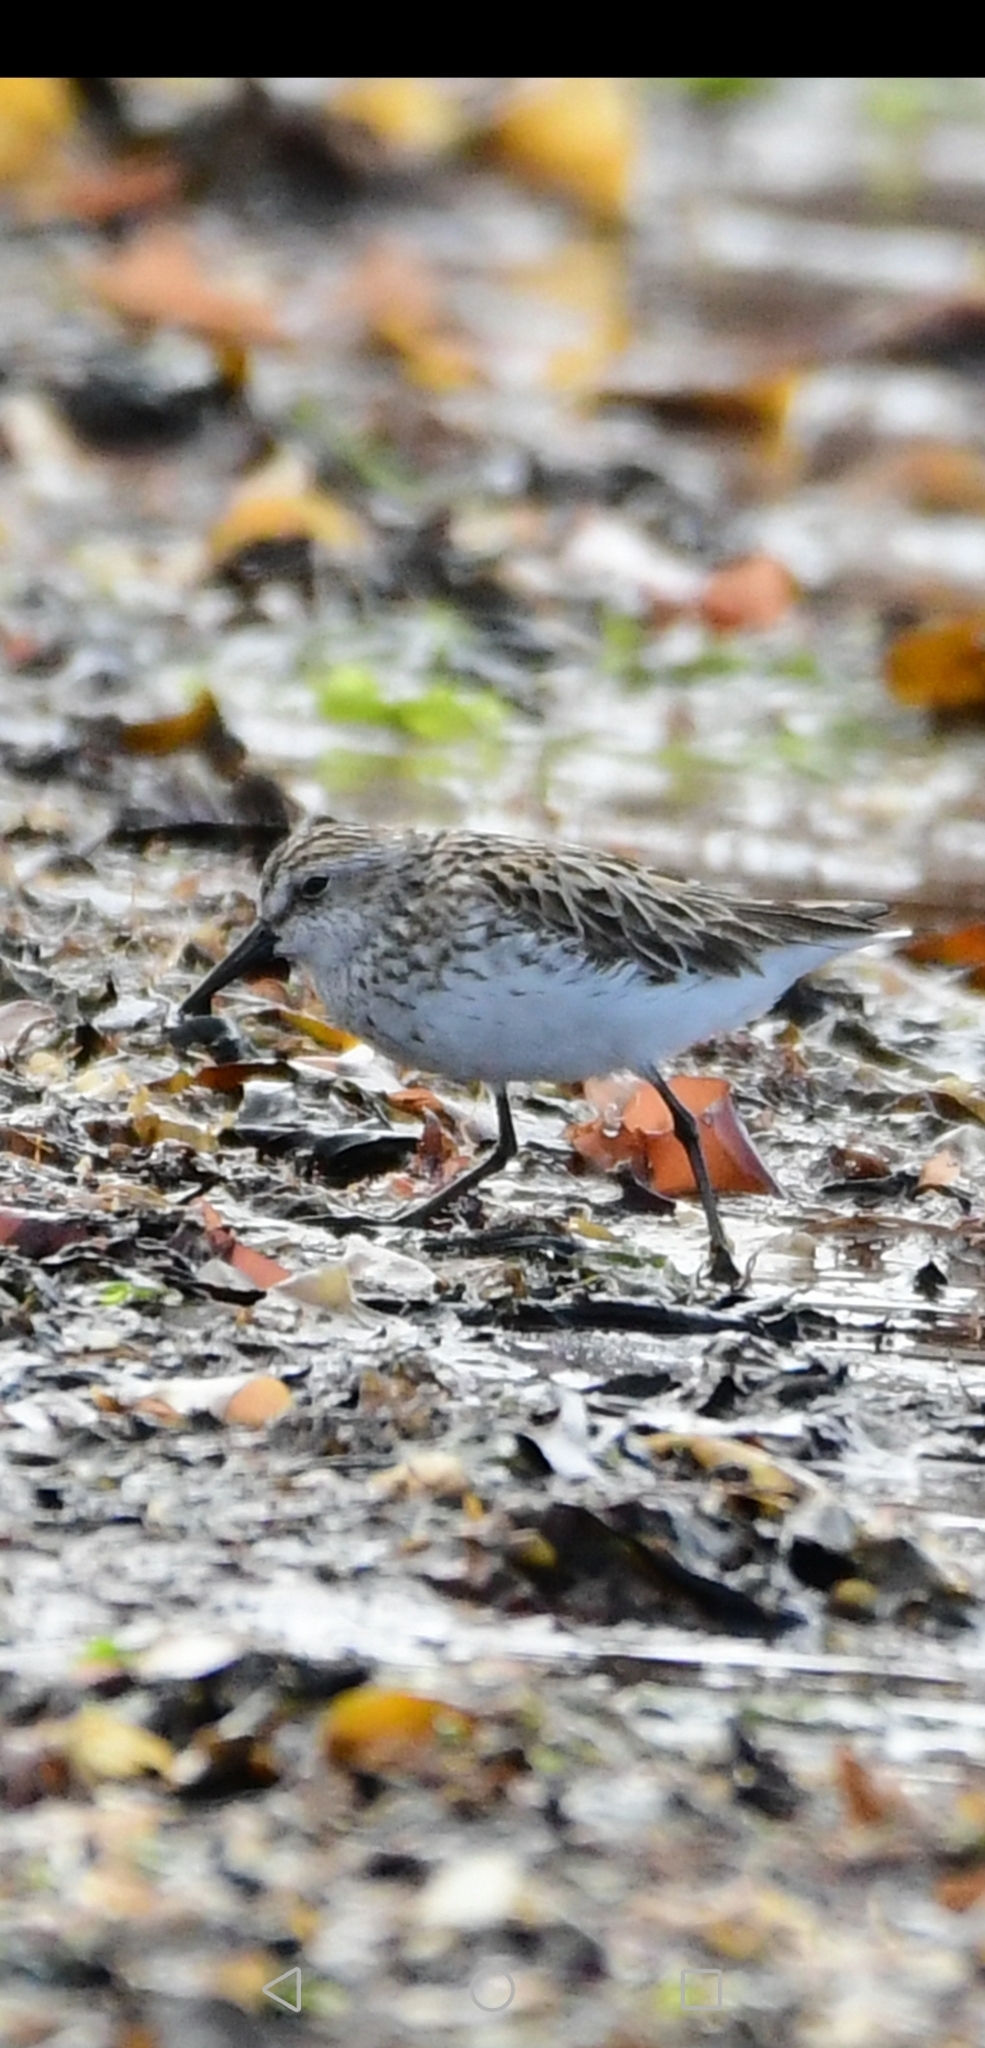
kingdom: Animalia
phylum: Chordata
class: Aves
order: Charadriiformes
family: Scolopacidae
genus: Calidris
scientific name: Calidris pusilla
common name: Semipalmated sandpiper
